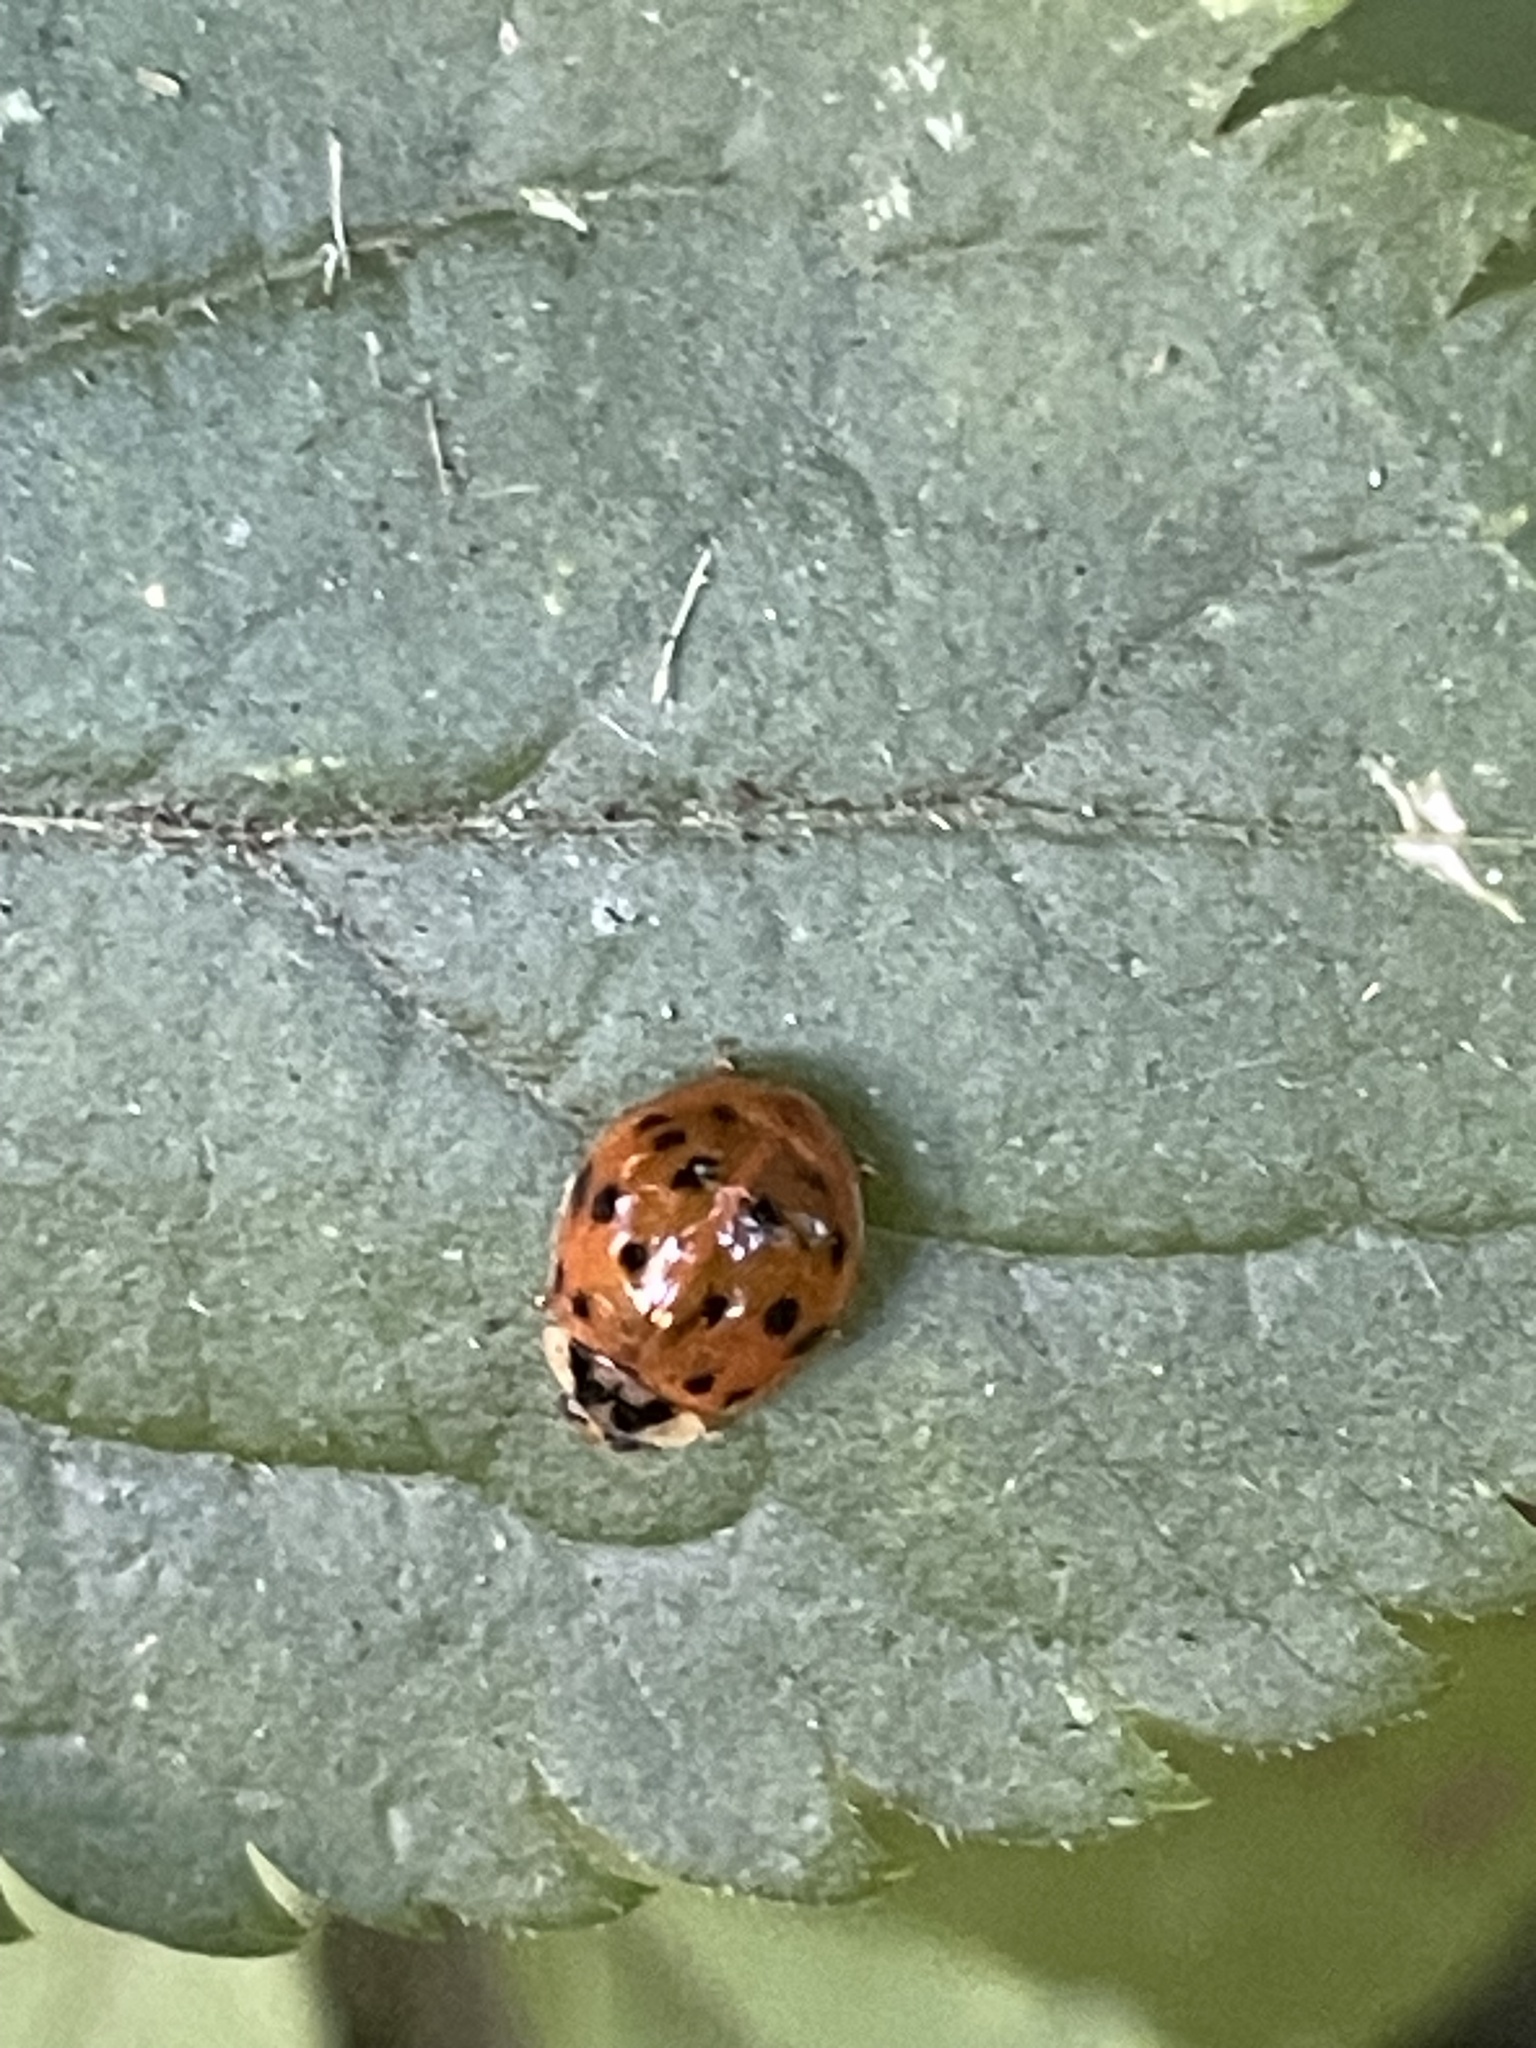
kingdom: Animalia
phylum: Arthropoda
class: Insecta
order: Coleoptera
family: Coccinellidae
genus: Harmonia
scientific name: Harmonia axyridis
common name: Harlequin ladybird
